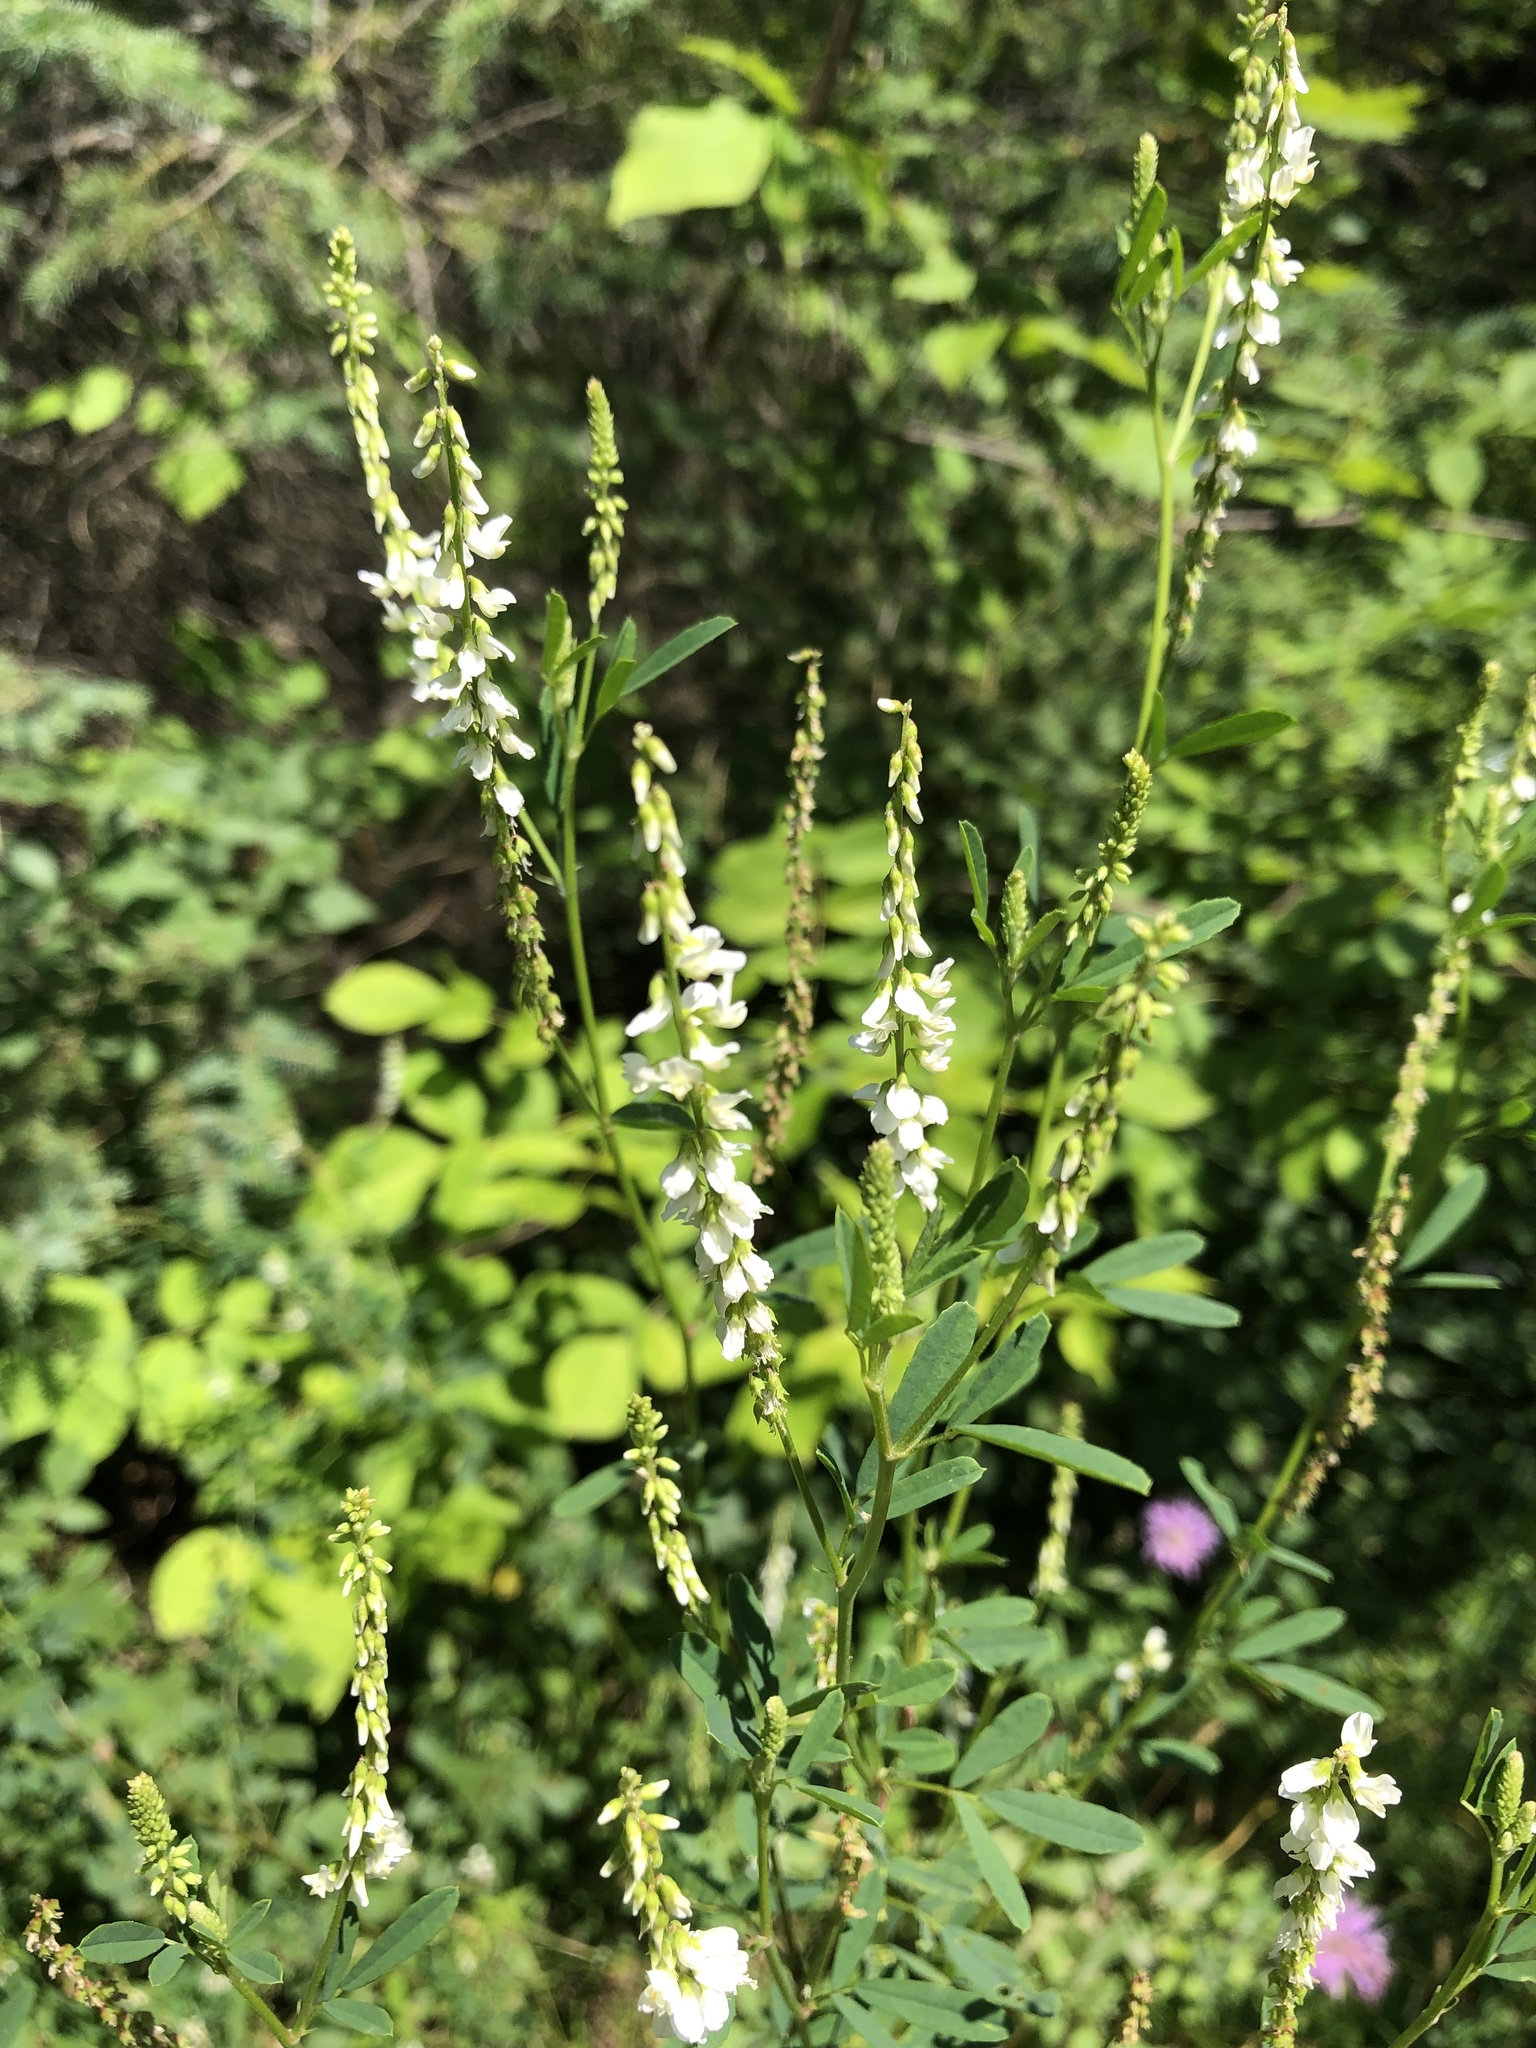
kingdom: Plantae
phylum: Tracheophyta
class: Magnoliopsida
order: Fabales
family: Fabaceae
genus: Melilotus
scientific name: Melilotus albus
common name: White melilot
